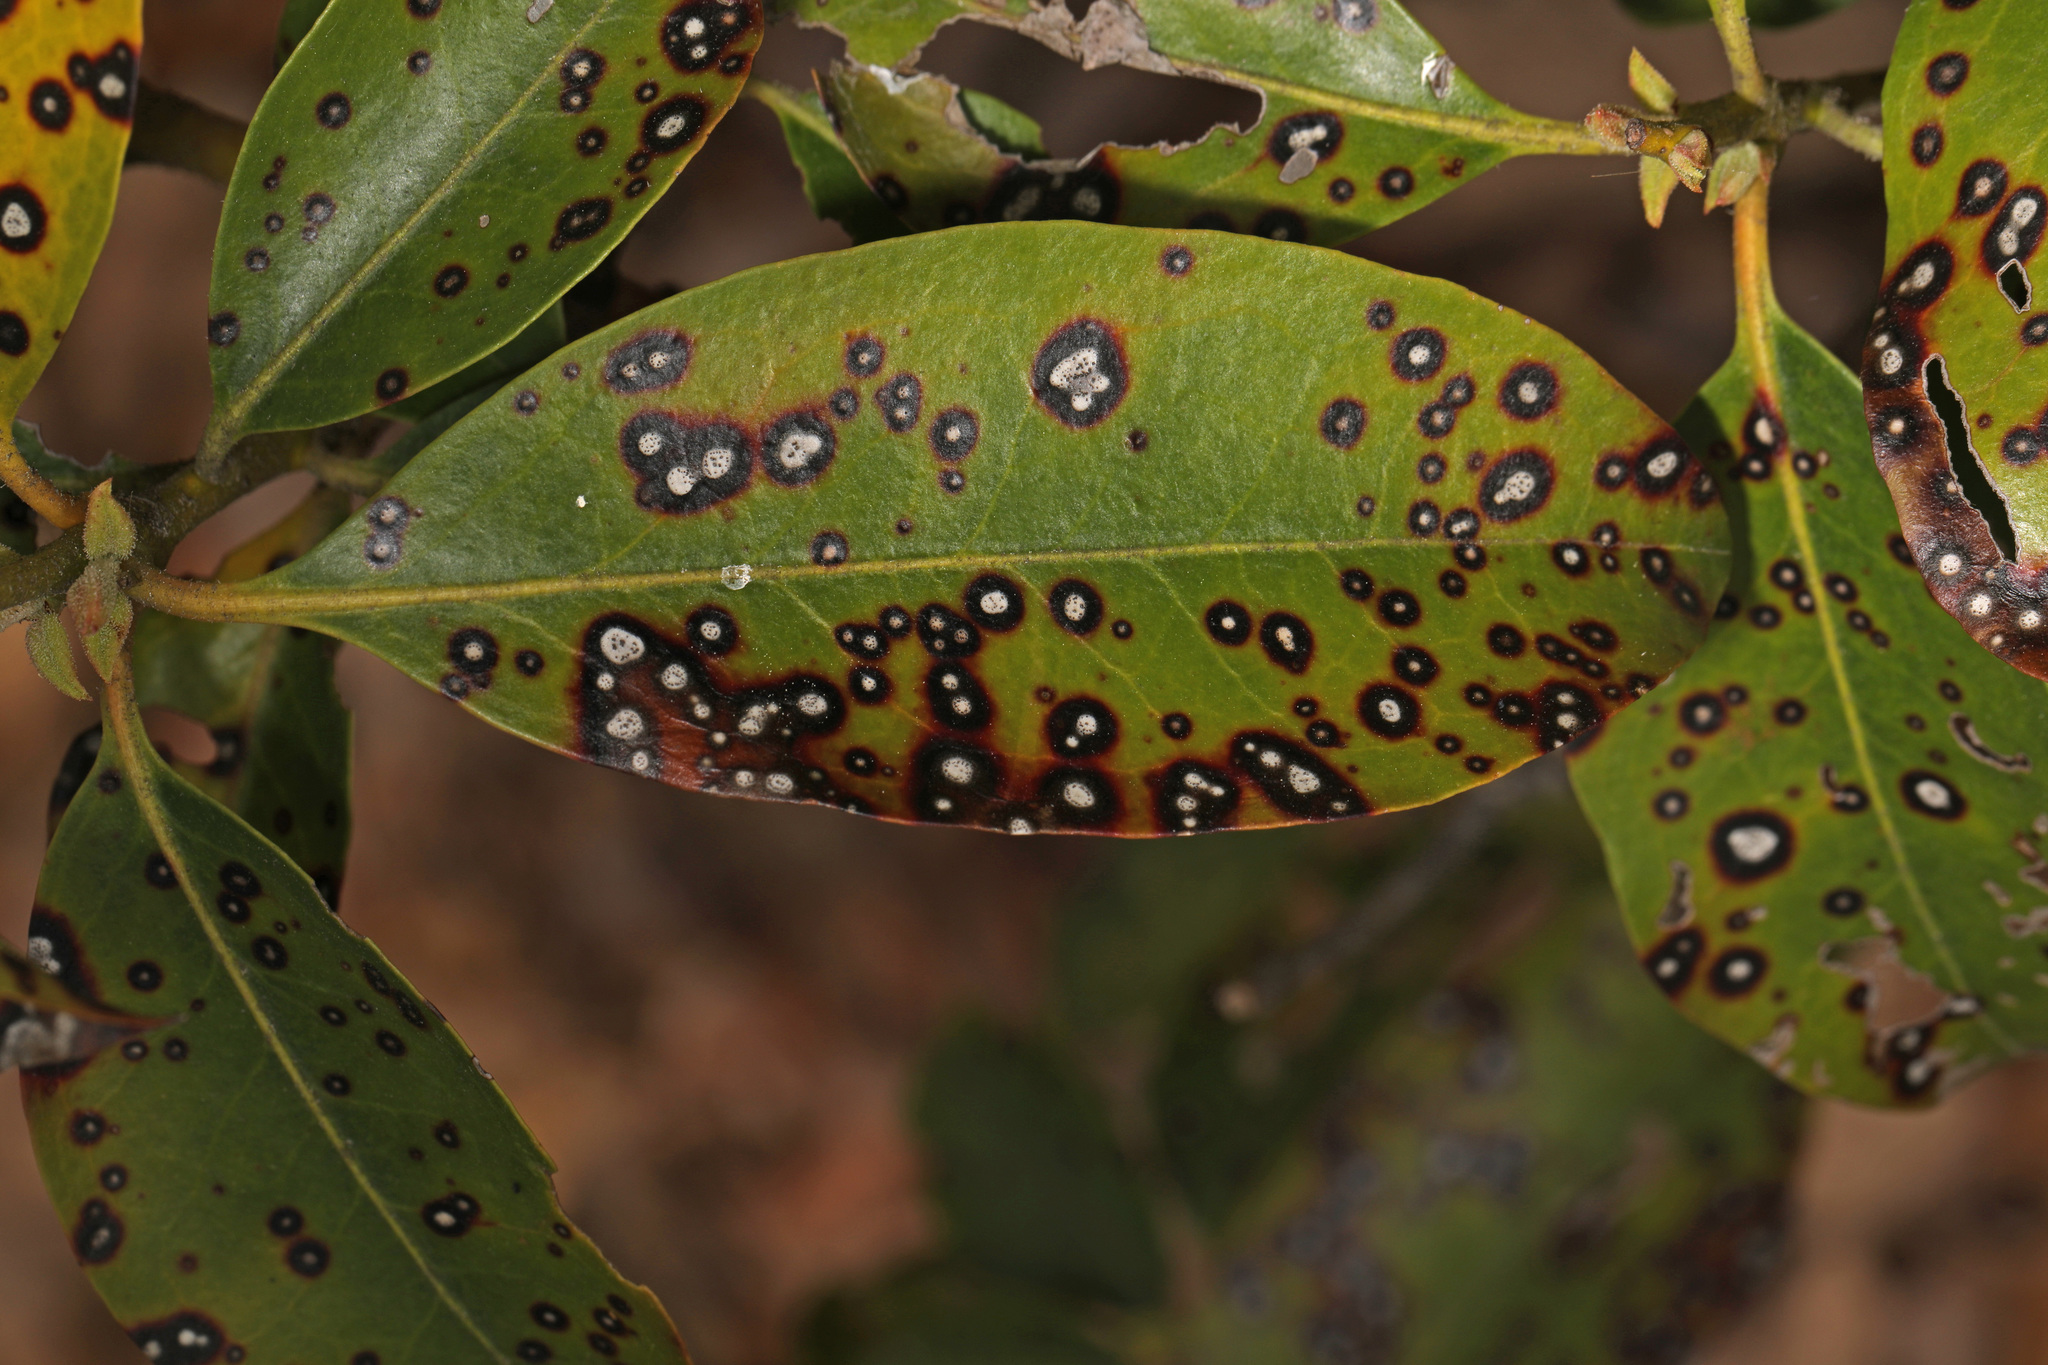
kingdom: Fungi
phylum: Ascomycota
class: Dothideomycetes
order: Mycosphaerellales
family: Mycosphaerellaceae
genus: Mycosphaerella
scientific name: Mycosphaerella colorata
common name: Mountain laurel leaf spot
